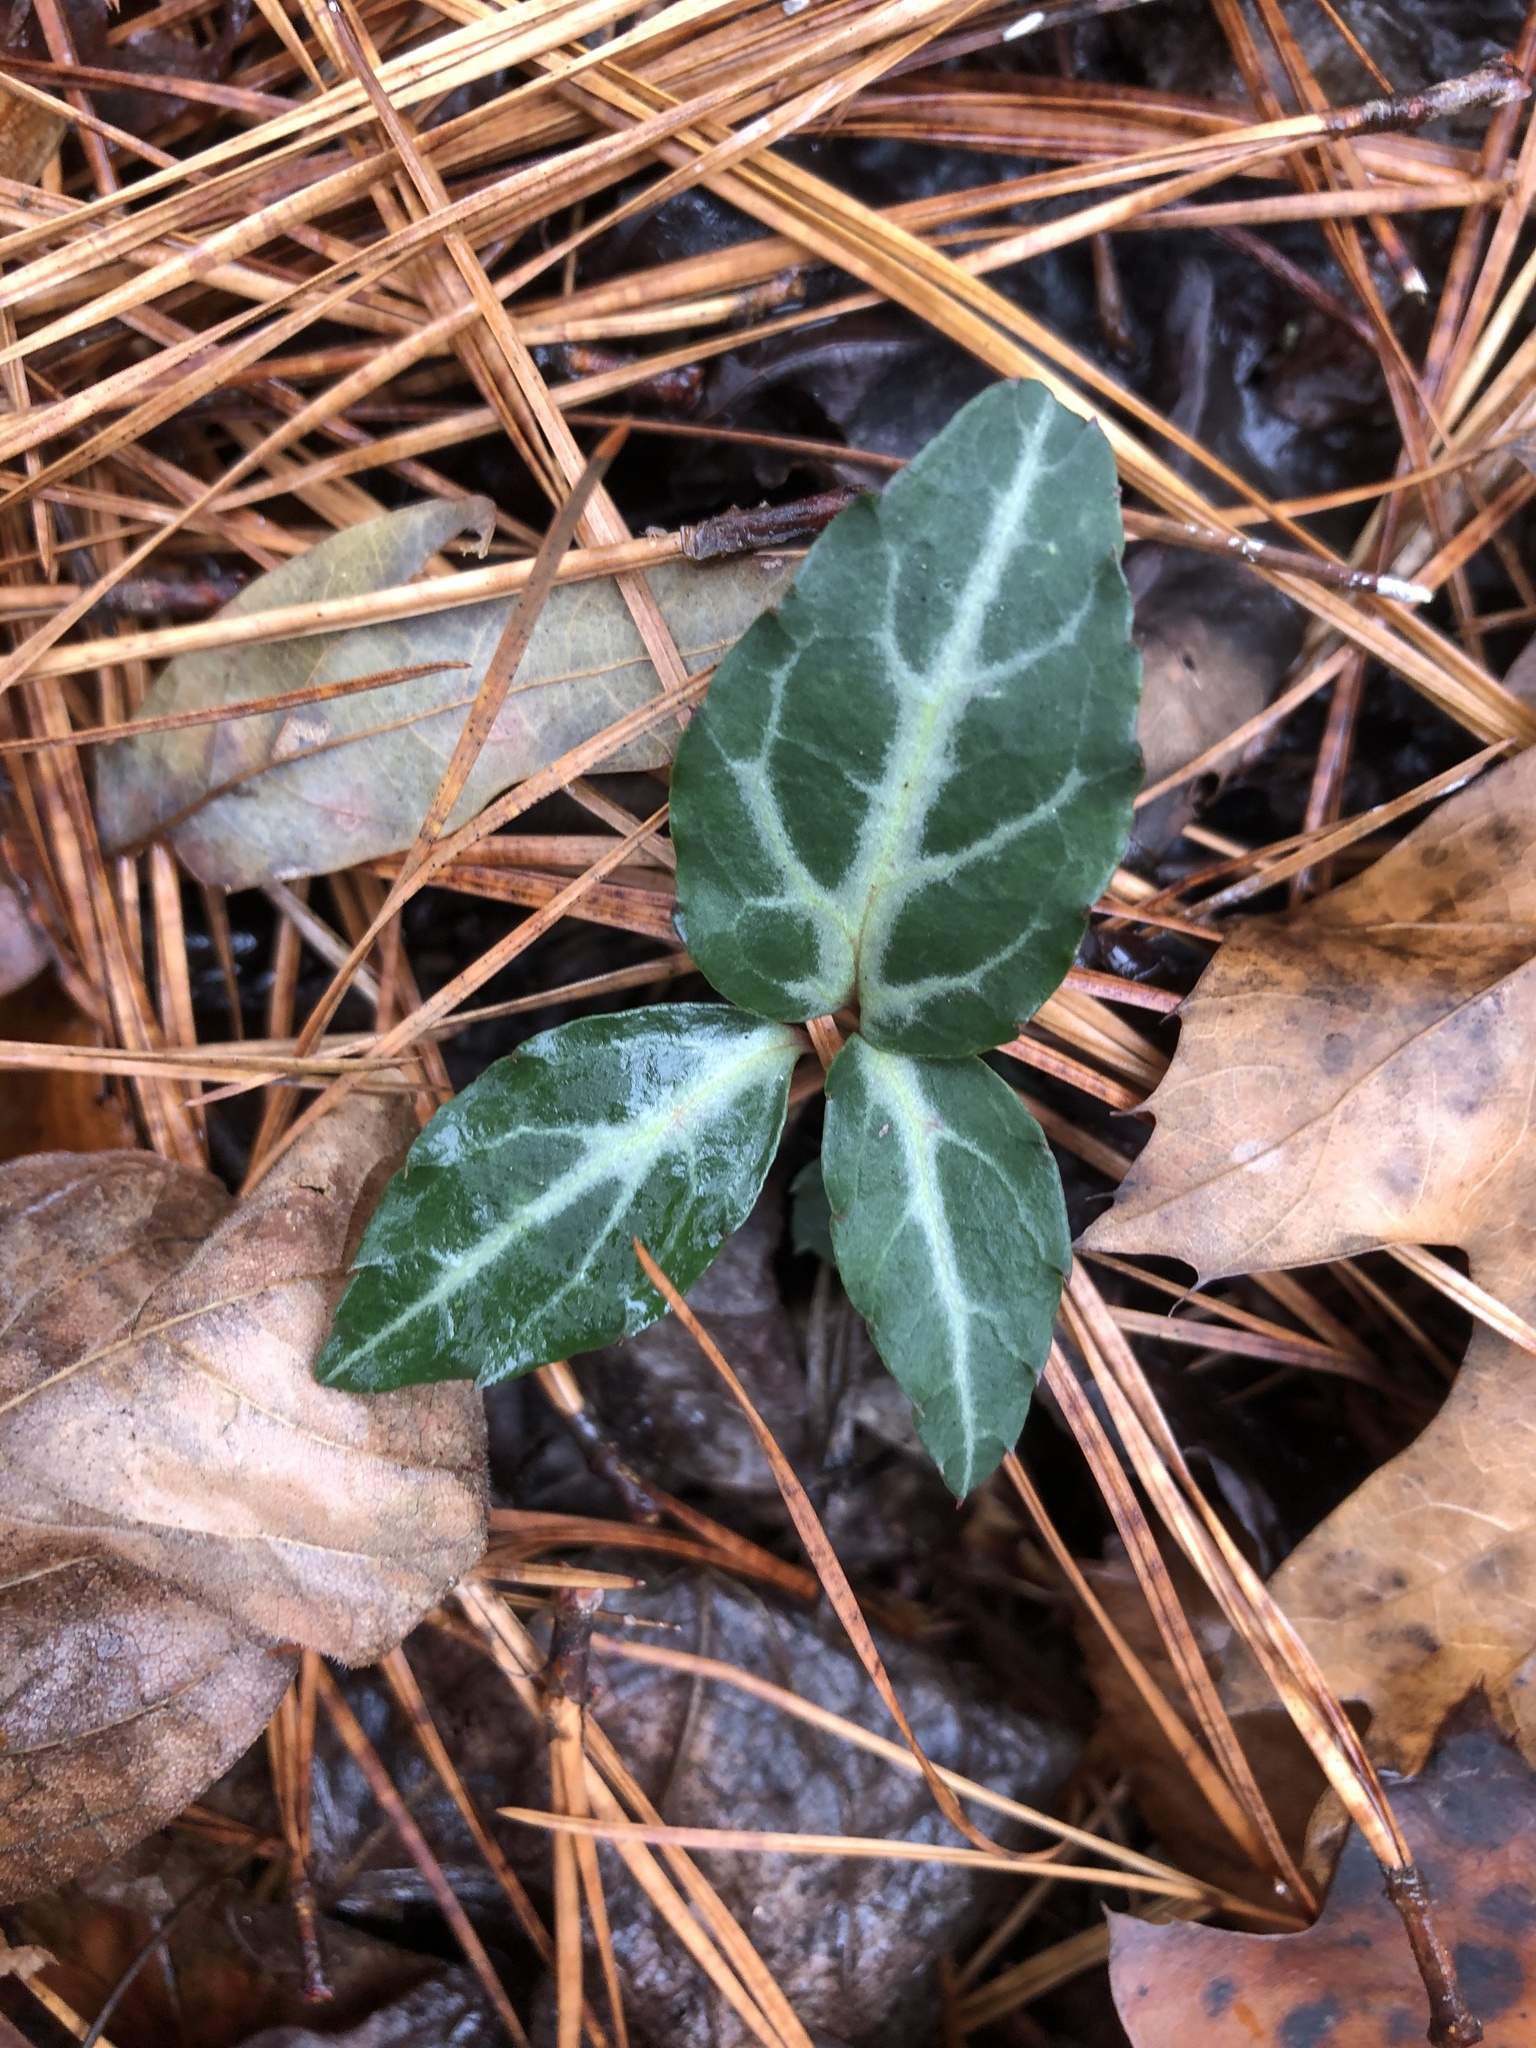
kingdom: Plantae
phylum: Tracheophyta
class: Magnoliopsida
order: Ericales
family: Ericaceae
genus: Chimaphila
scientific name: Chimaphila maculata
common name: Spotted pipsissewa
